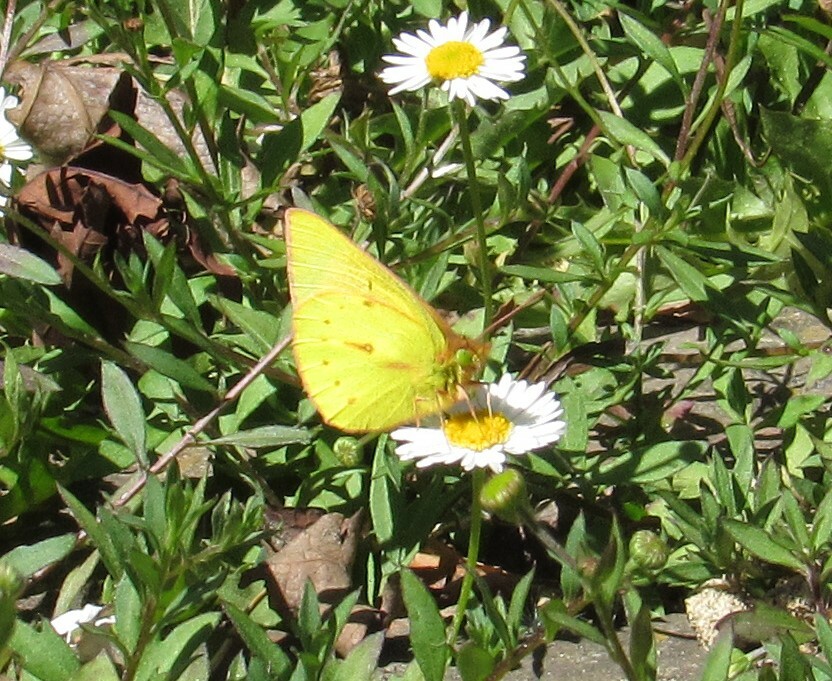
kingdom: Animalia
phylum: Arthropoda
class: Insecta
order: Lepidoptera
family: Pieridae
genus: Colias
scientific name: Colias dimera
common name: Dimera sulphur
